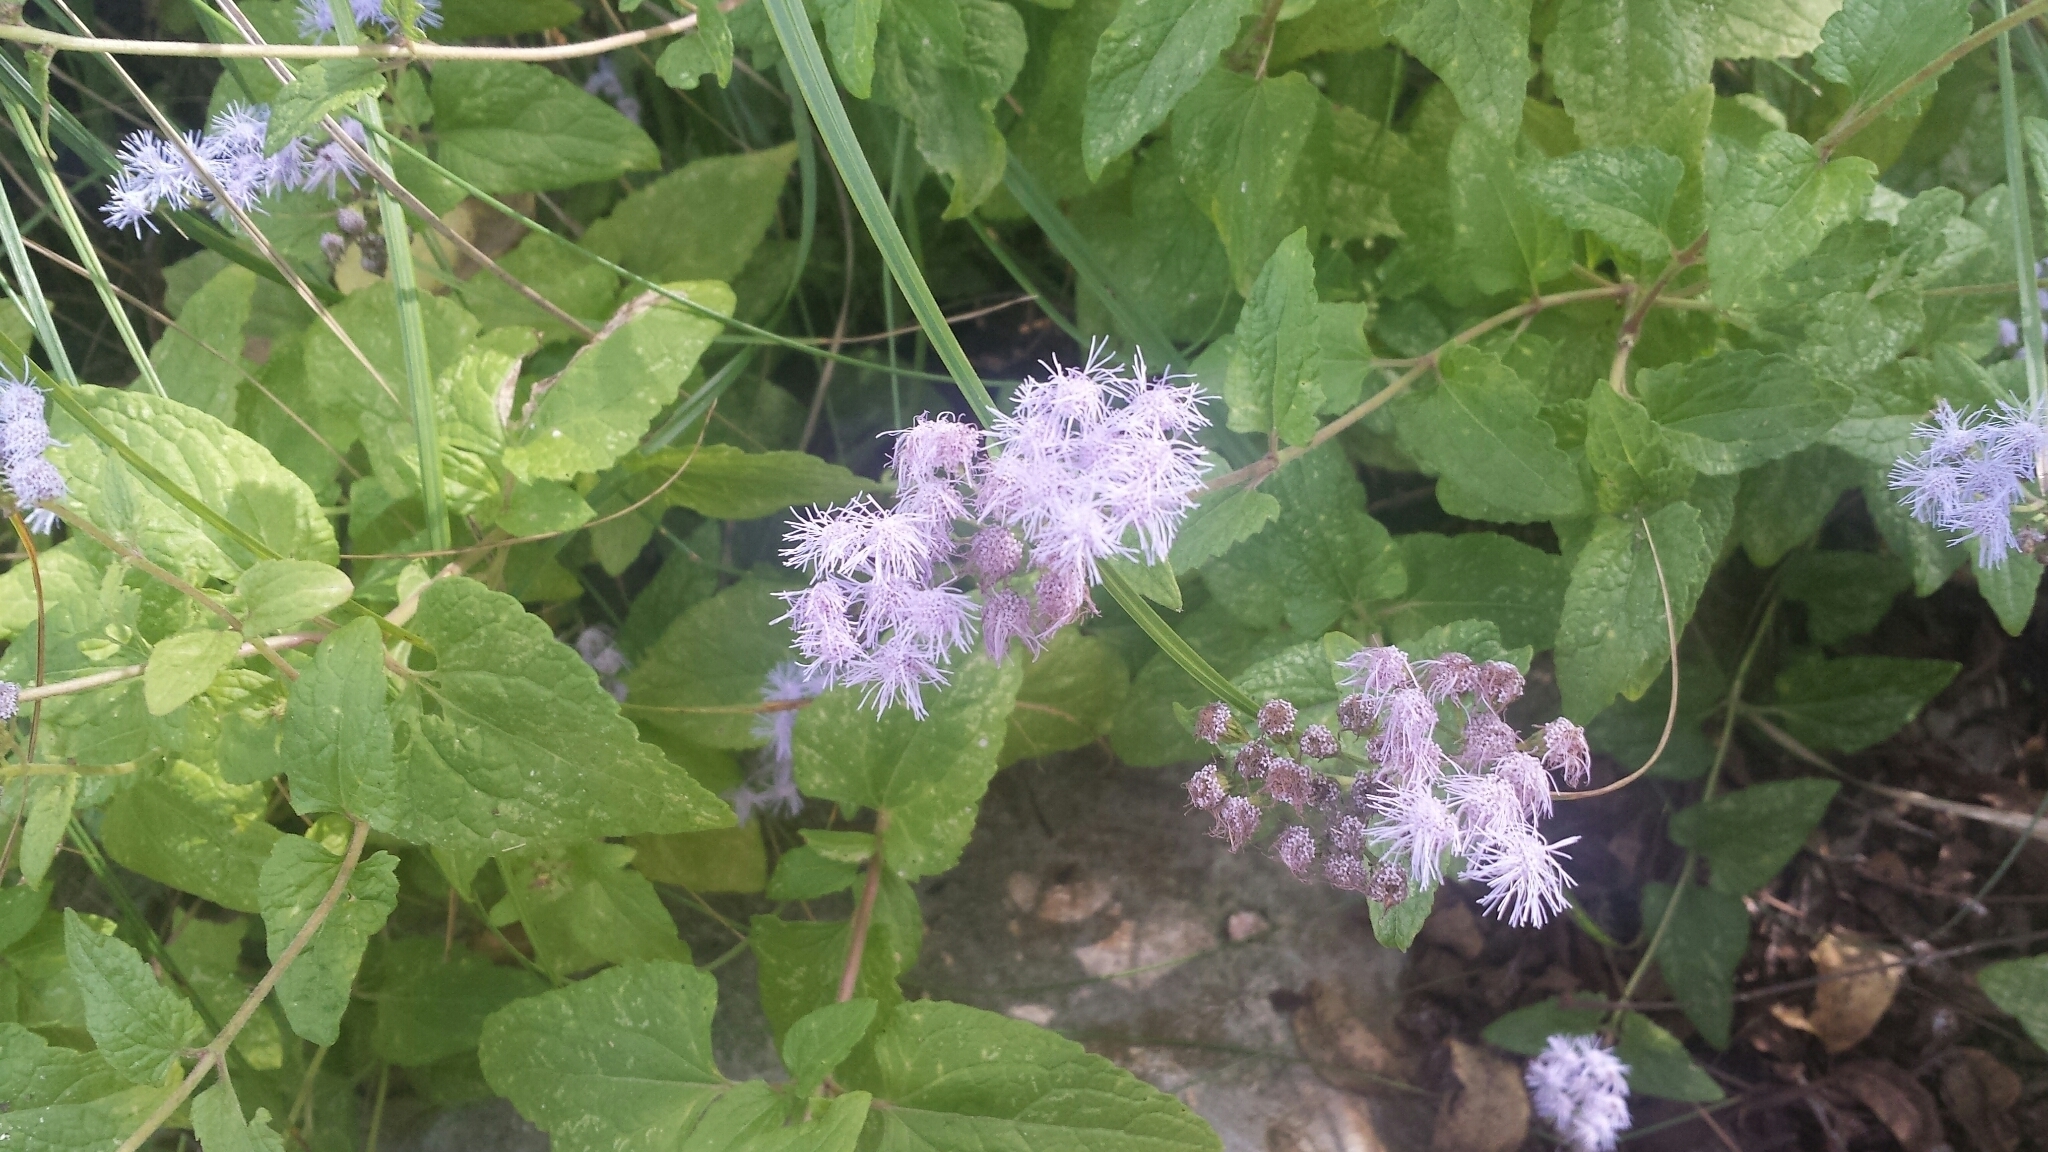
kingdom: Plantae
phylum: Tracheophyta
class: Magnoliopsida
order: Asterales
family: Asteraceae
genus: Conoclinium
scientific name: Conoclinium coelestinum
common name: Blue mistflower
